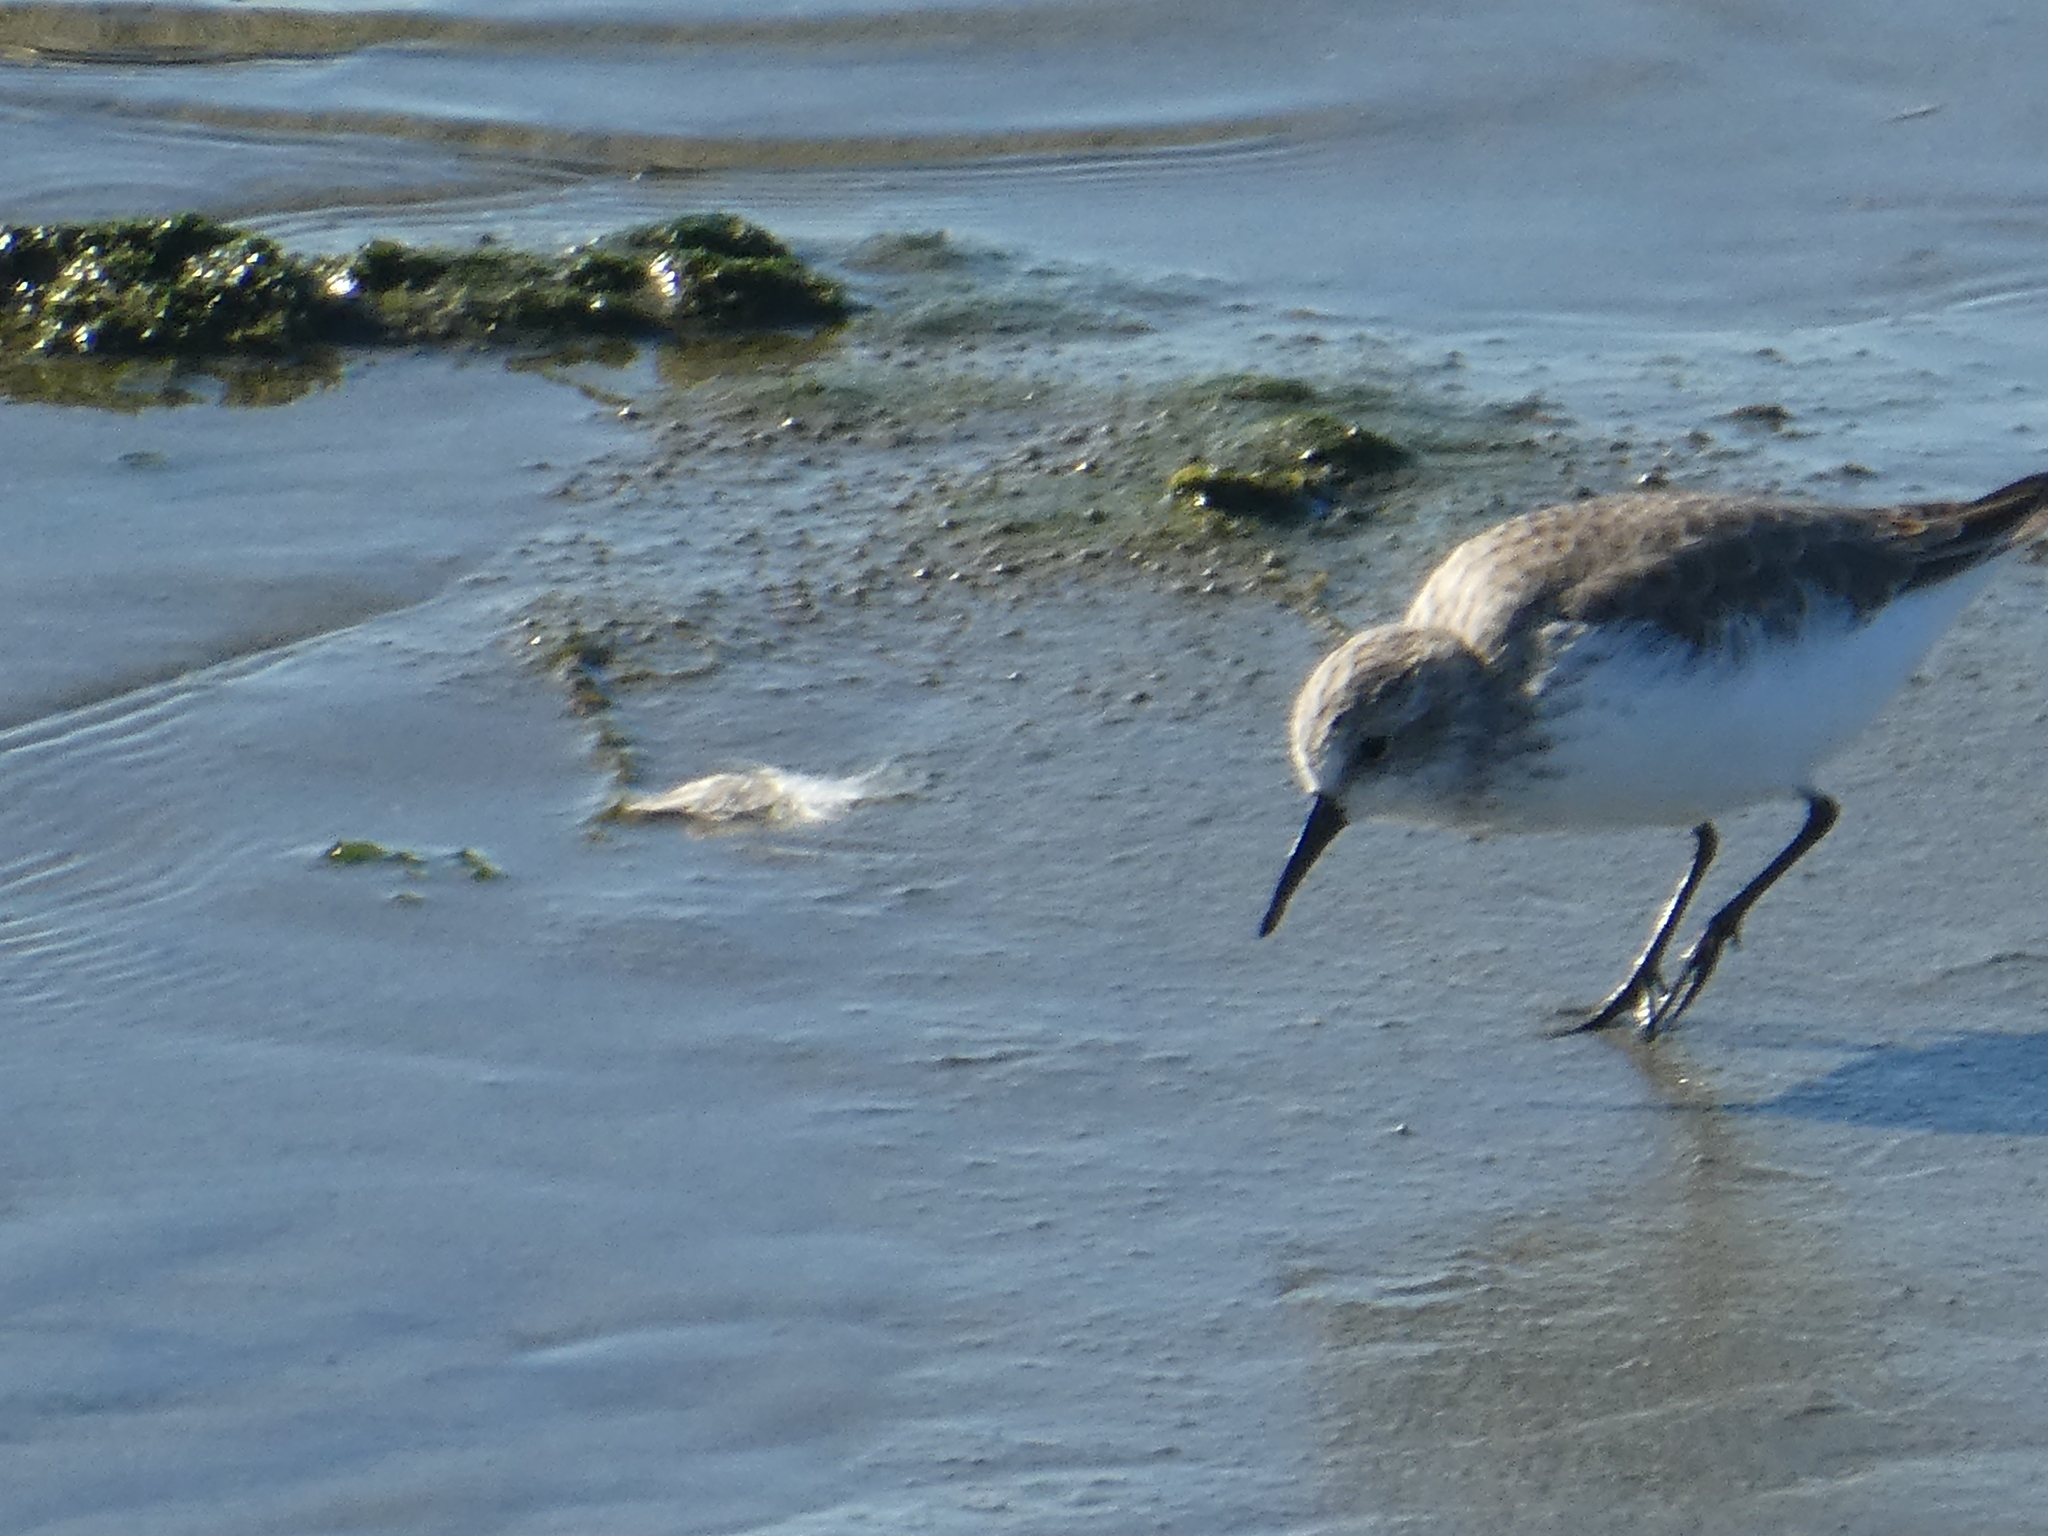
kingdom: Animalia
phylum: Chordata
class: Aves
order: Charadriiformes
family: Scolopacidae
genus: Calidris
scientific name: Calidris mauri
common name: Western sandpiper
